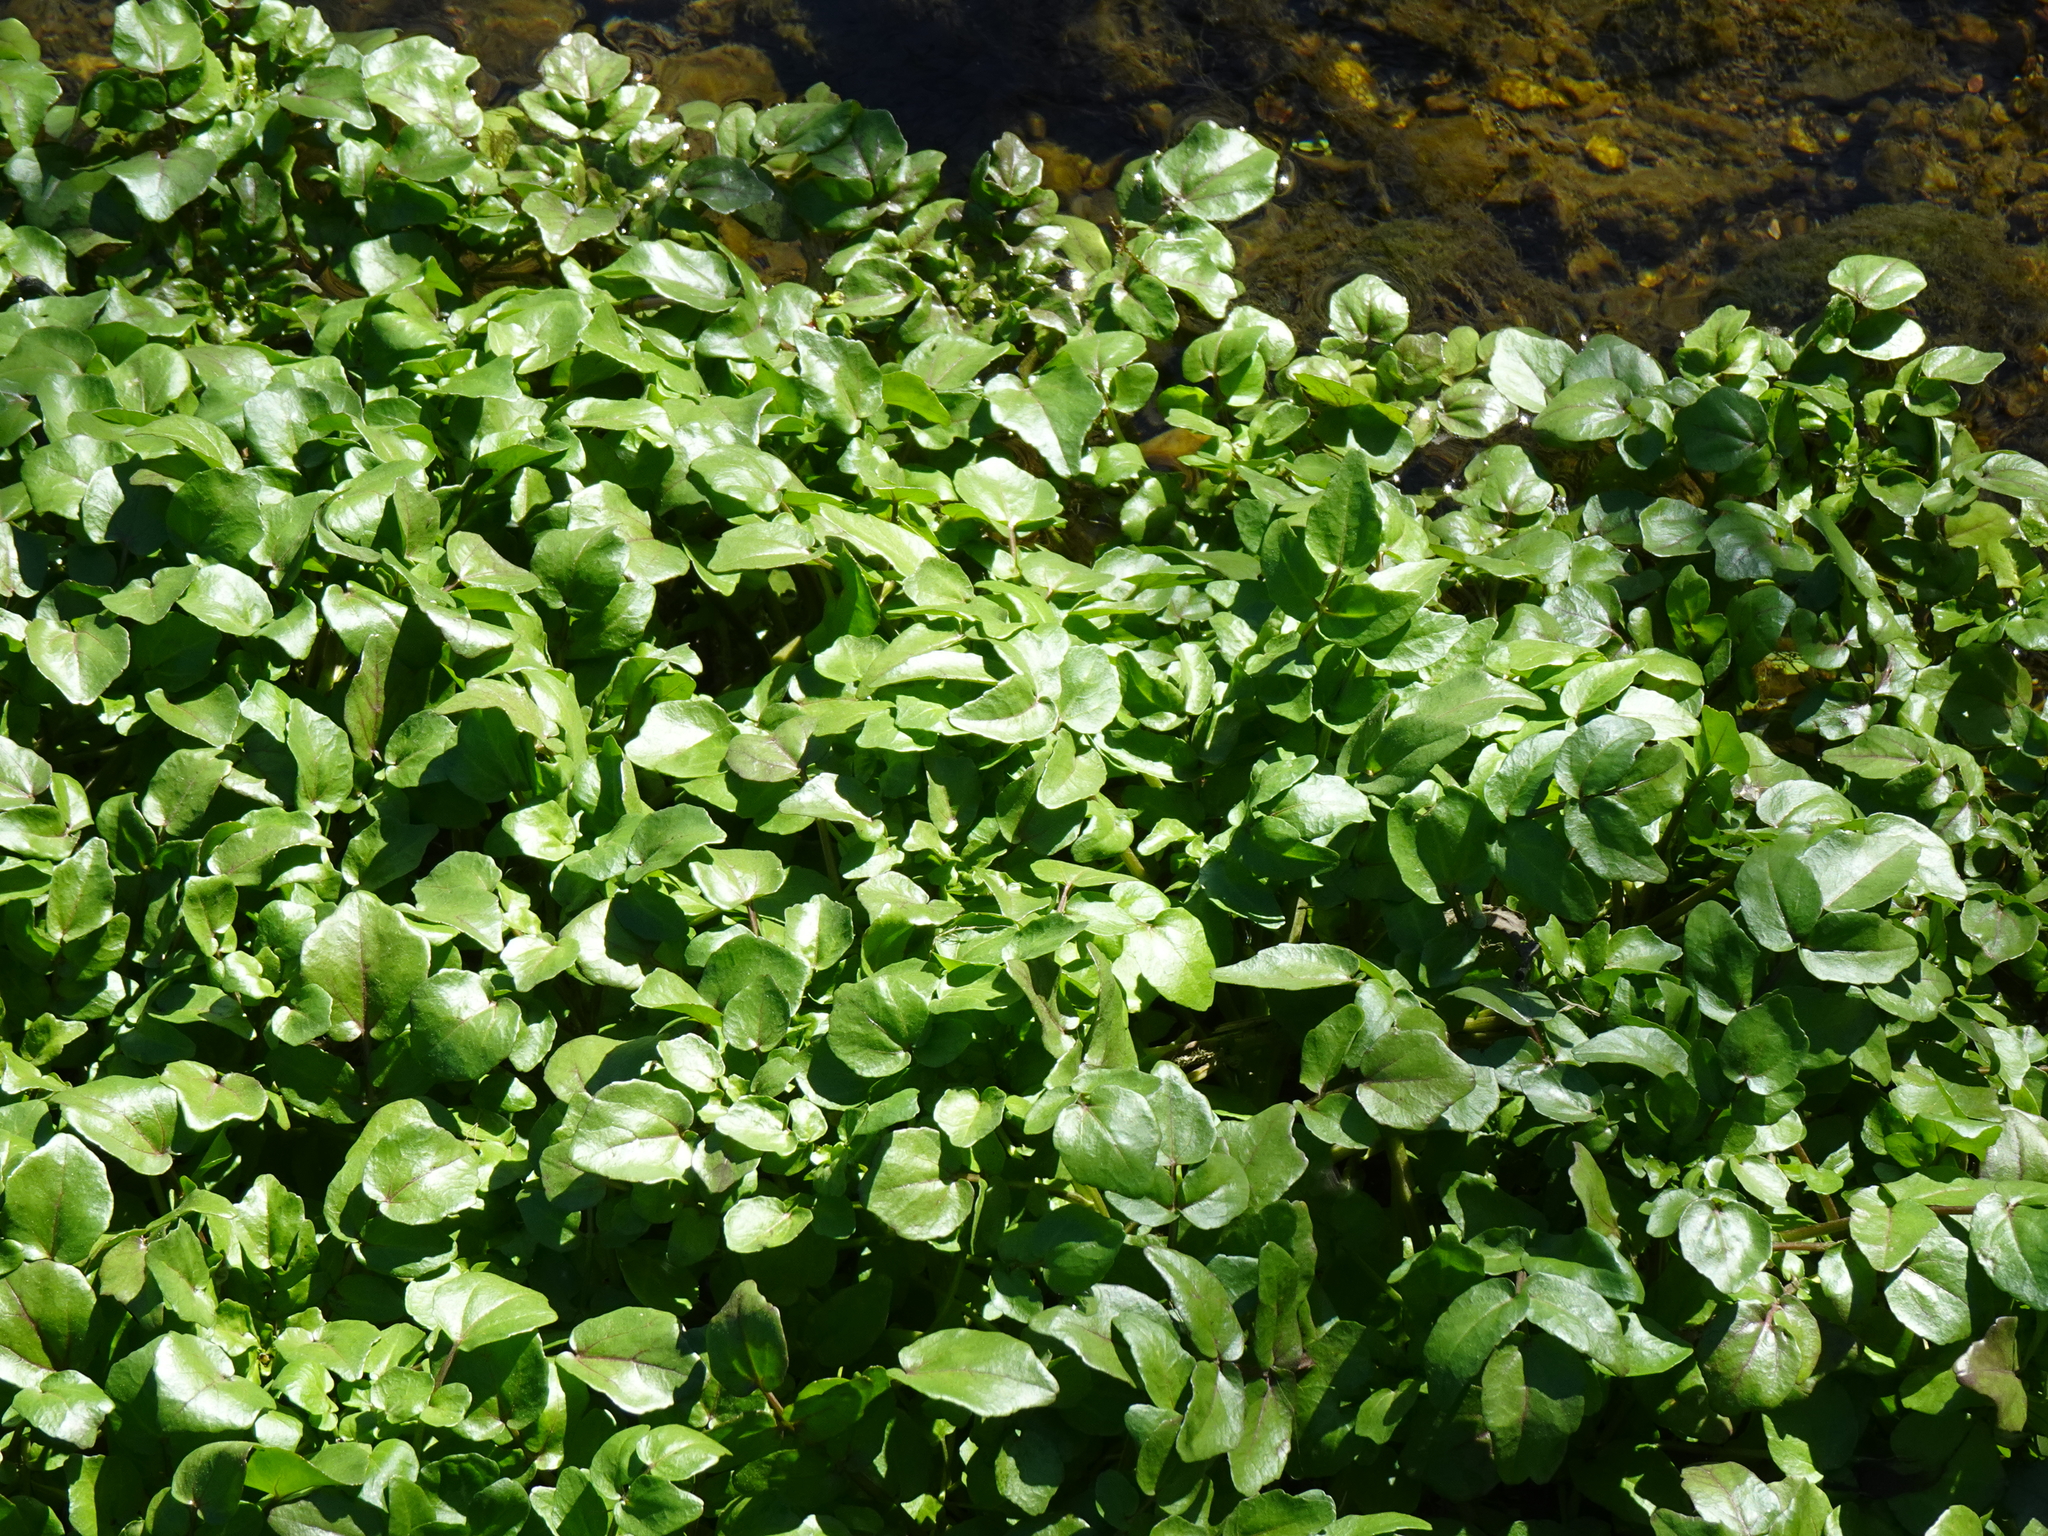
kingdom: Plantae
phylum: Tracheophyta
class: Magnoliopsida
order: Brassicales
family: Brassicaceae
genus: Nasturtium
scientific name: Nasturtium officinale
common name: Watercress
